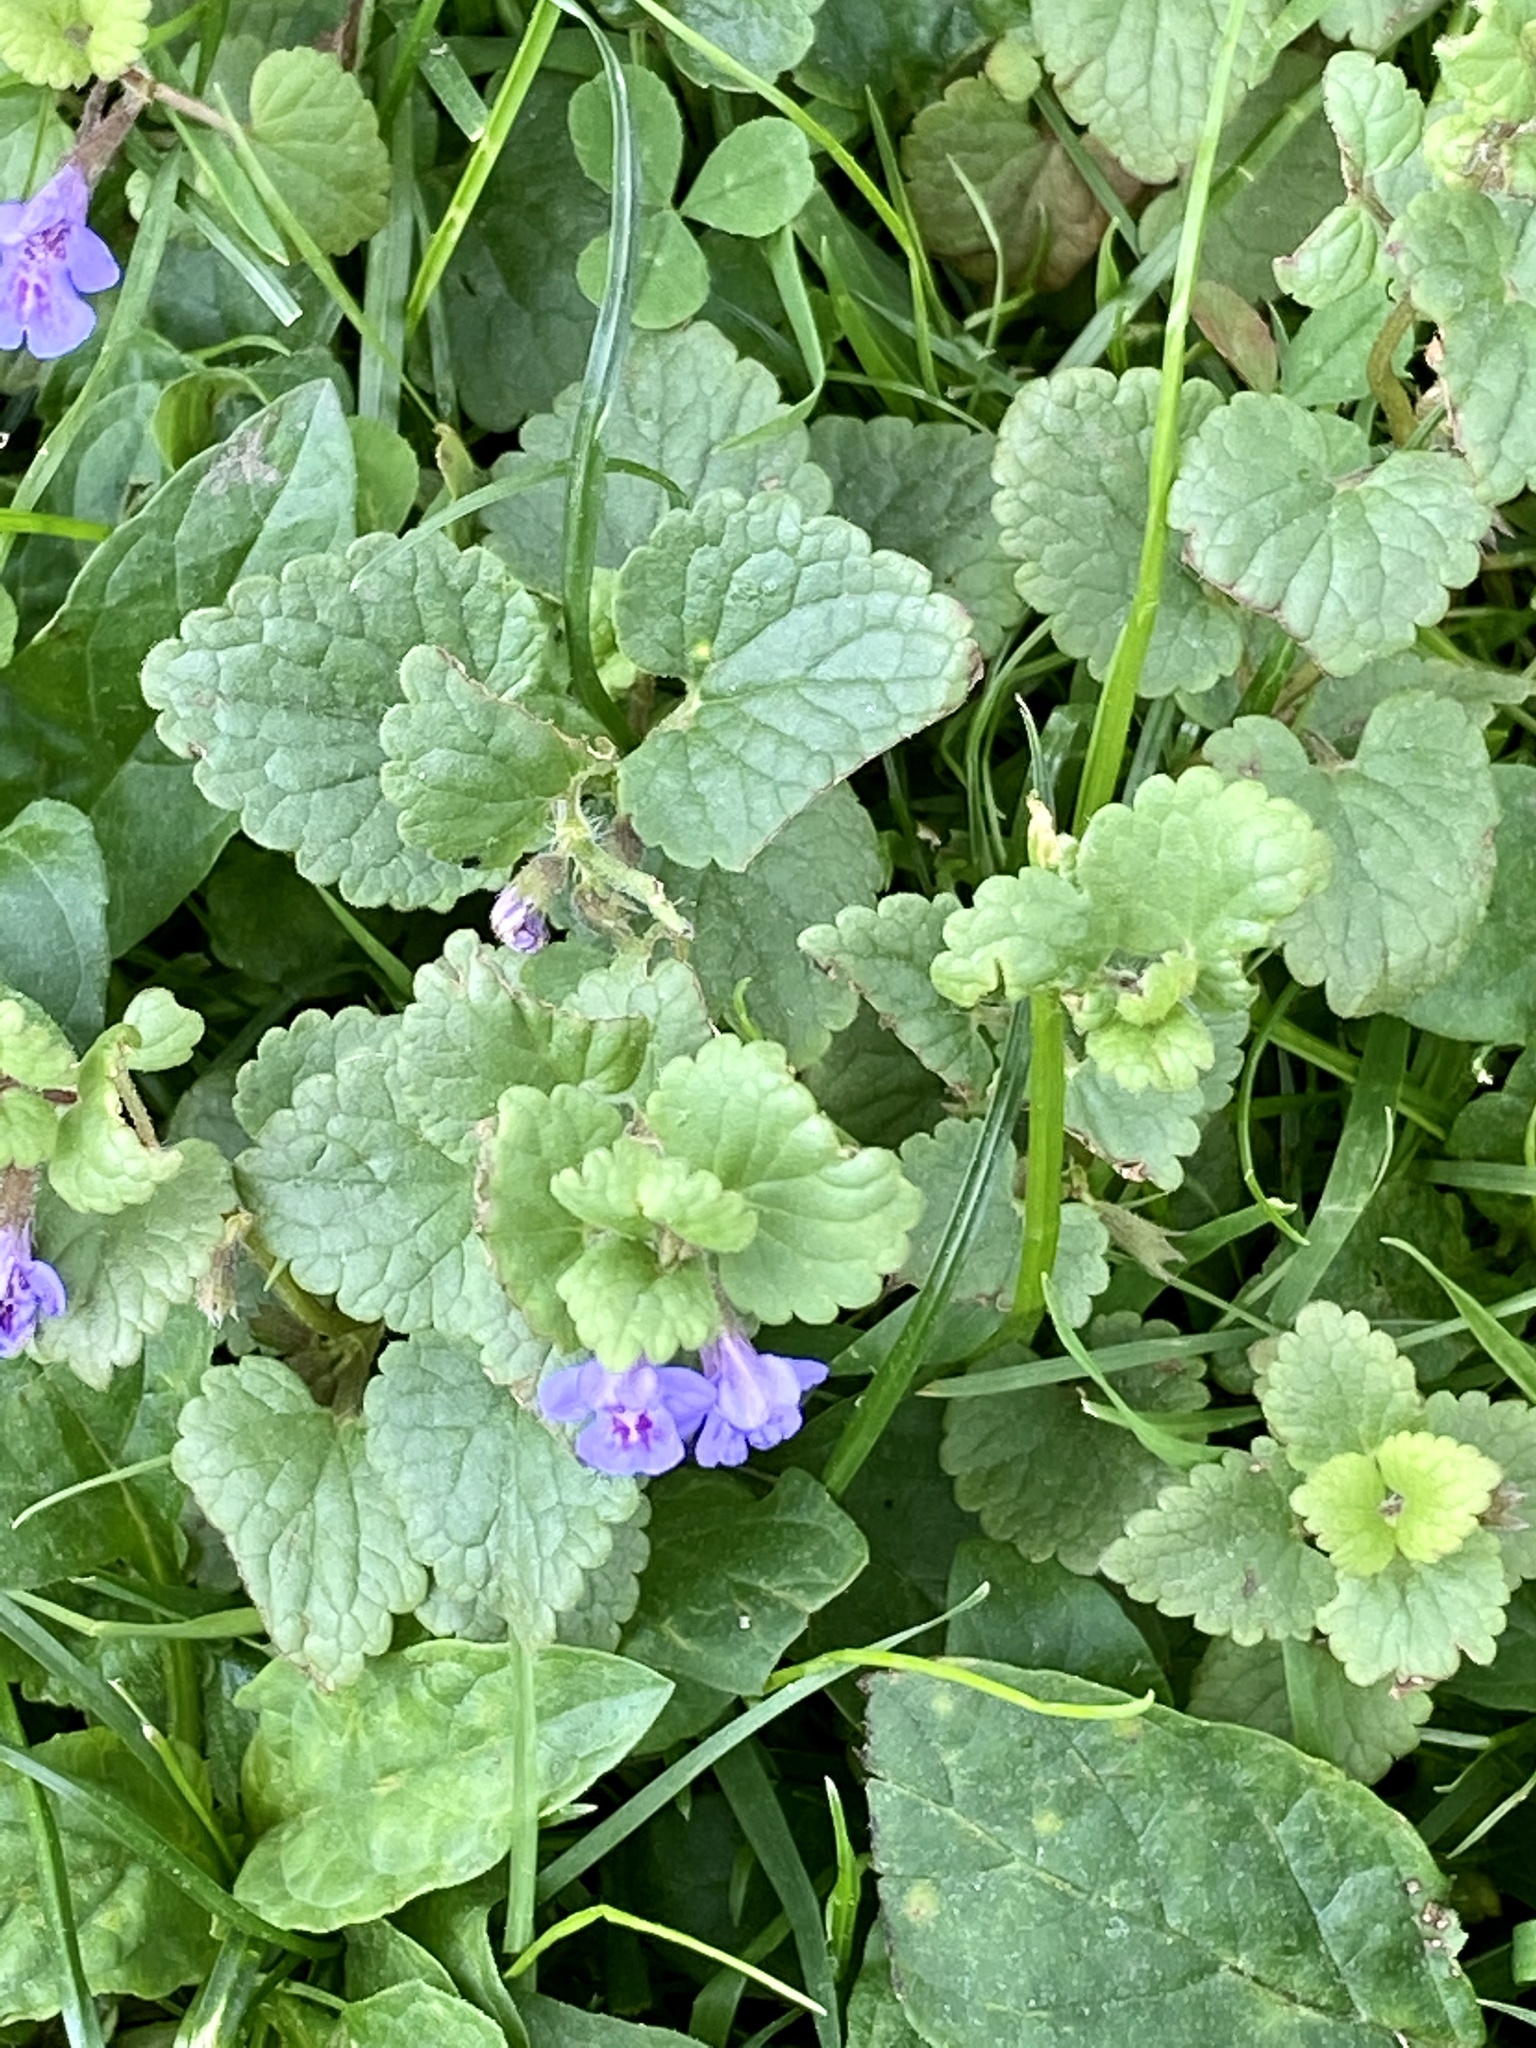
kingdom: Plantae
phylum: Tracheophyta
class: Magnoliopsida
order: Lamiales
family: Lamiaceae
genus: Glechoma
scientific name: Glechoma hederacea
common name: Ground ivy
